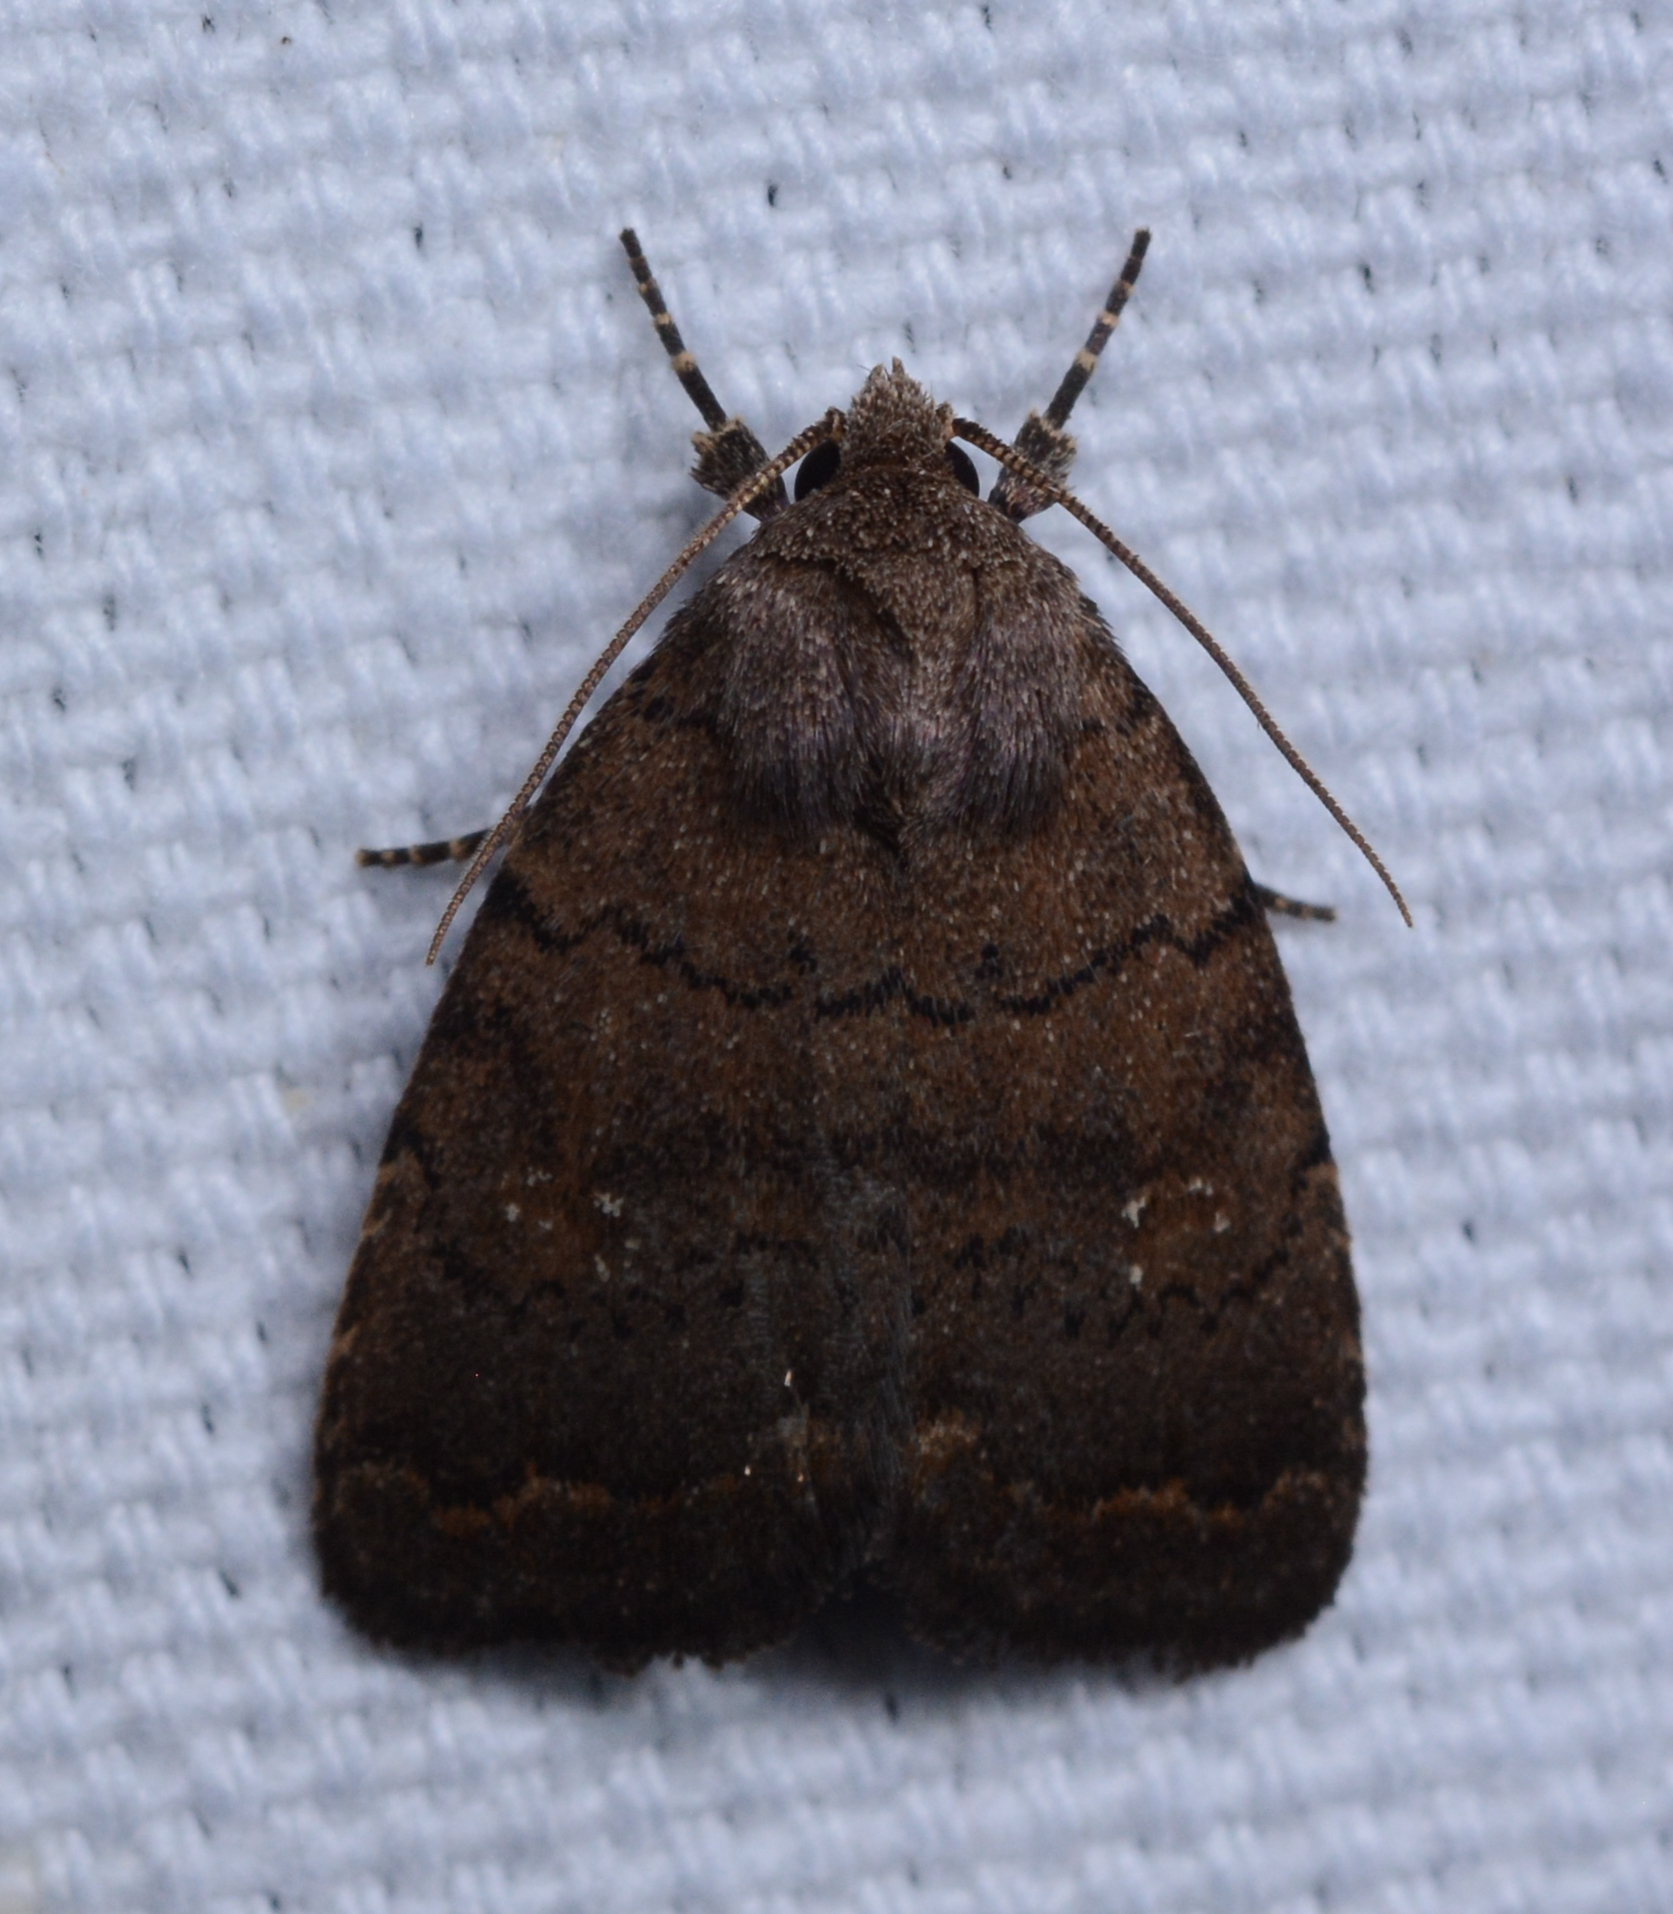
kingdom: Animalia
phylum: Arthropoda
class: Insecta
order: Lepidoptera
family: Noctuidae
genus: Athetis
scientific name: Athetis tarda
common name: Slowpoke moth
